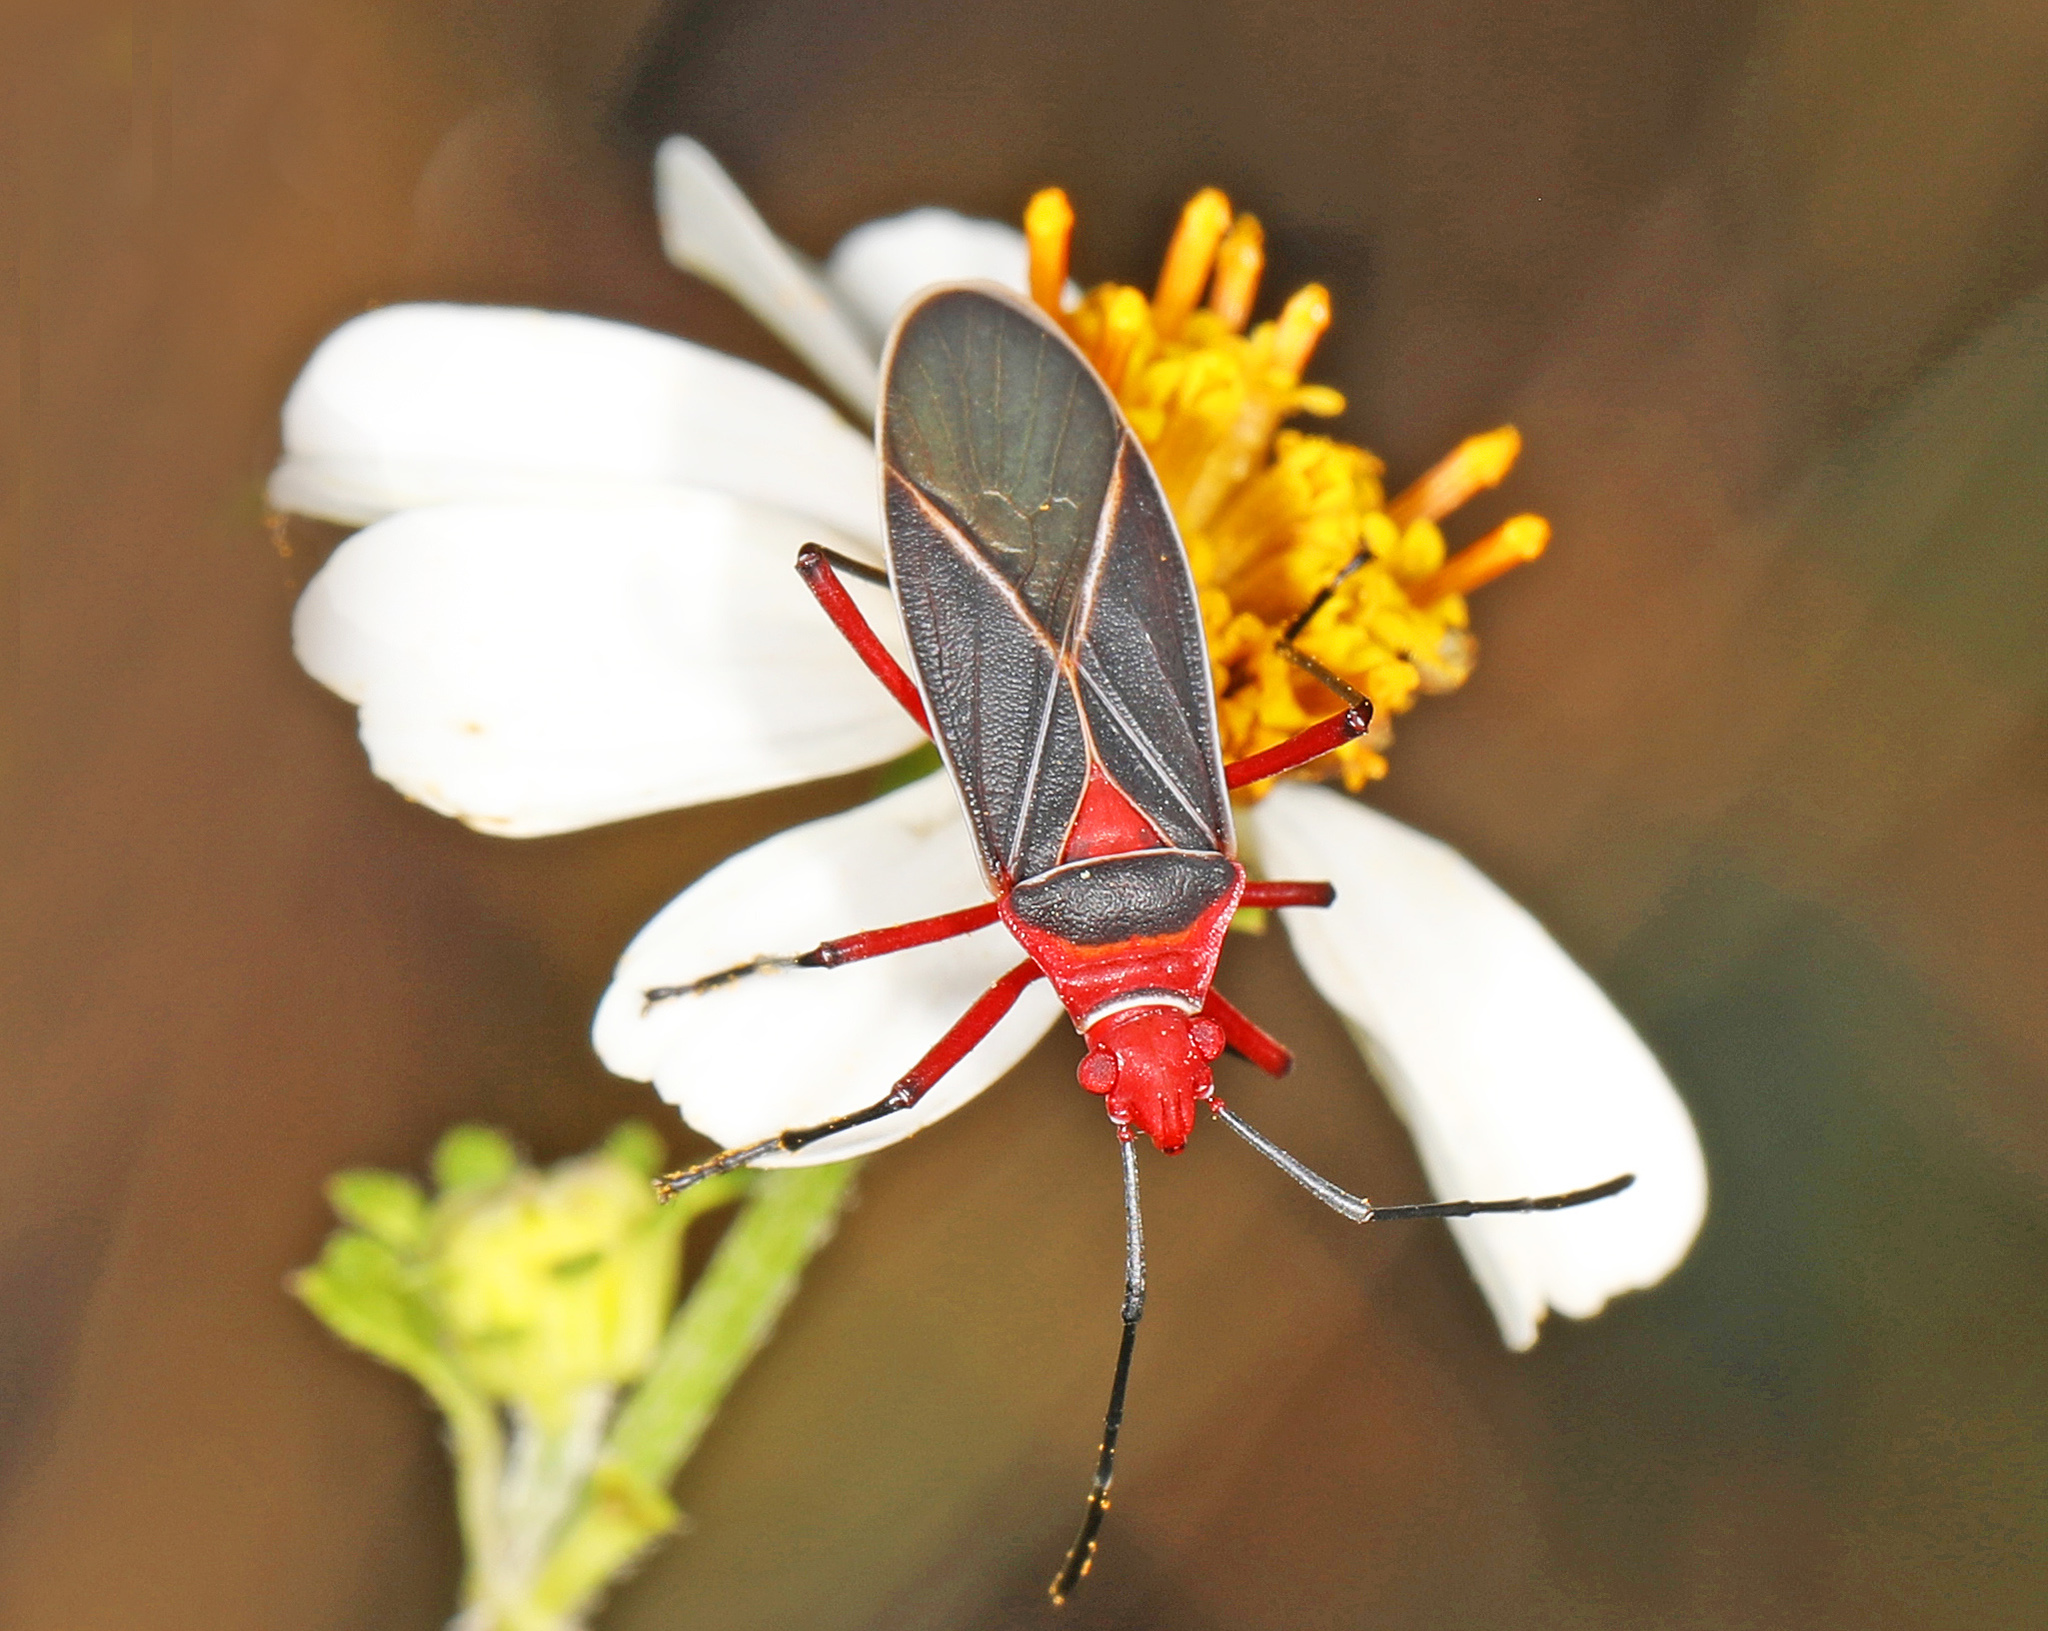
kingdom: Animalia
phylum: Arthropoda
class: Insecta
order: Hemiptera
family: Pyrrhocoridae
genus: Dysdercus
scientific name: Dysdercus suturellus
